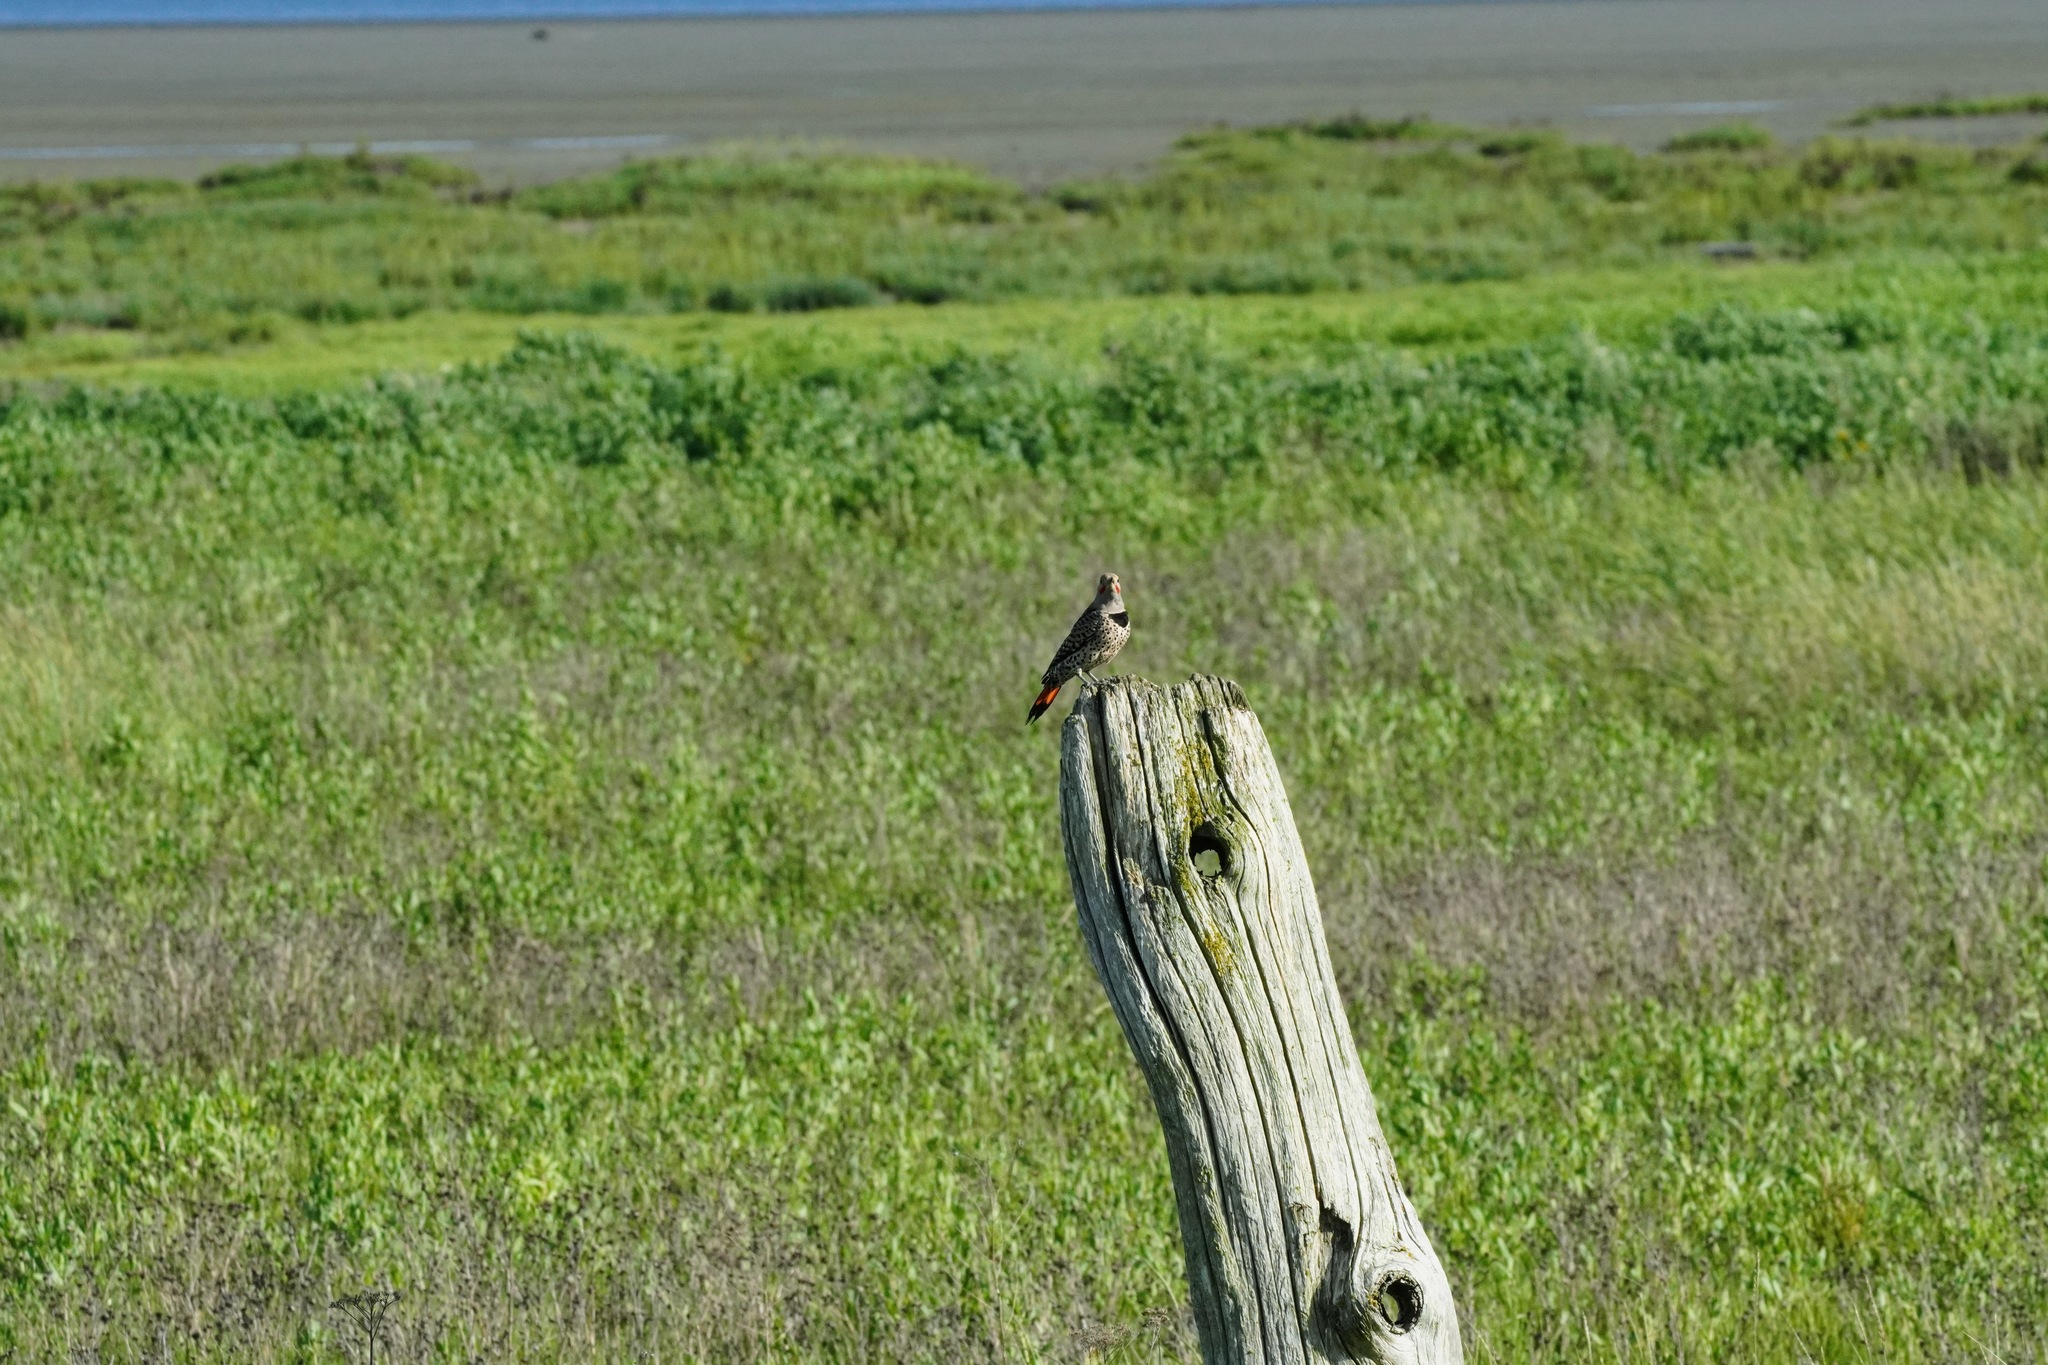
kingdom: Animalia
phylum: Chordata
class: Aves
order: Piciformes
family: Picidae
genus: Colaptes
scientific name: Colaptes auratus
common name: Northern flicker
